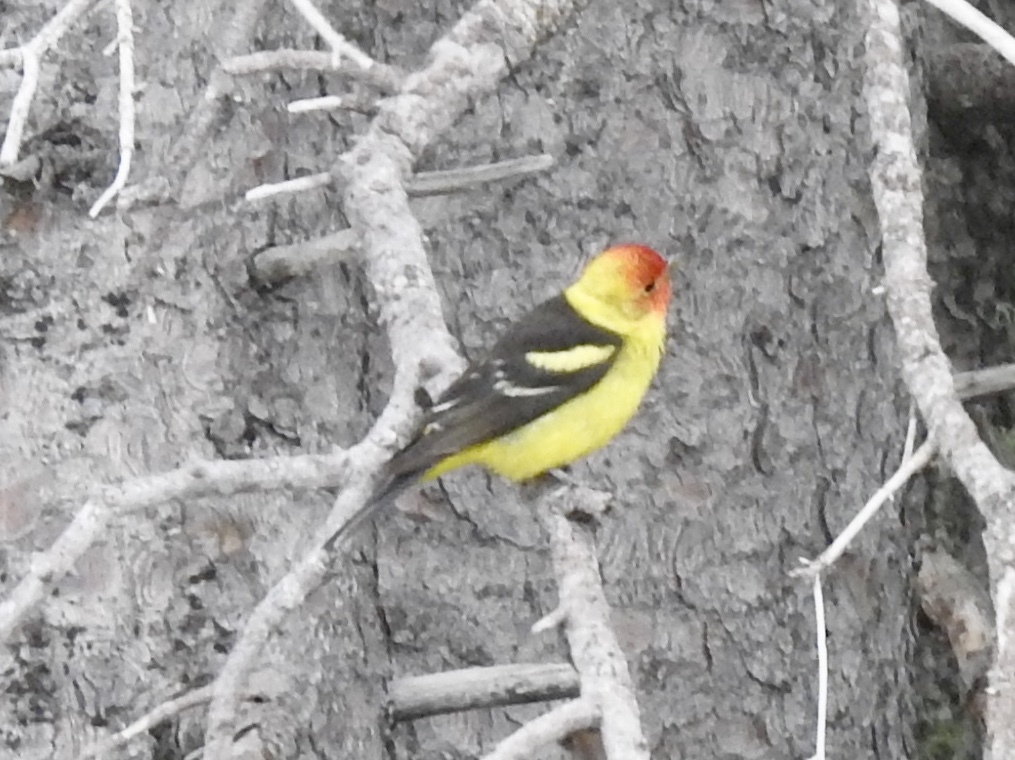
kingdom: Animalia
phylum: Chordata
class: Aves
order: Passeriformes
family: Cardinalidae
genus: Piranga
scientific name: Piranga ludoviciana
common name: Western tanager
